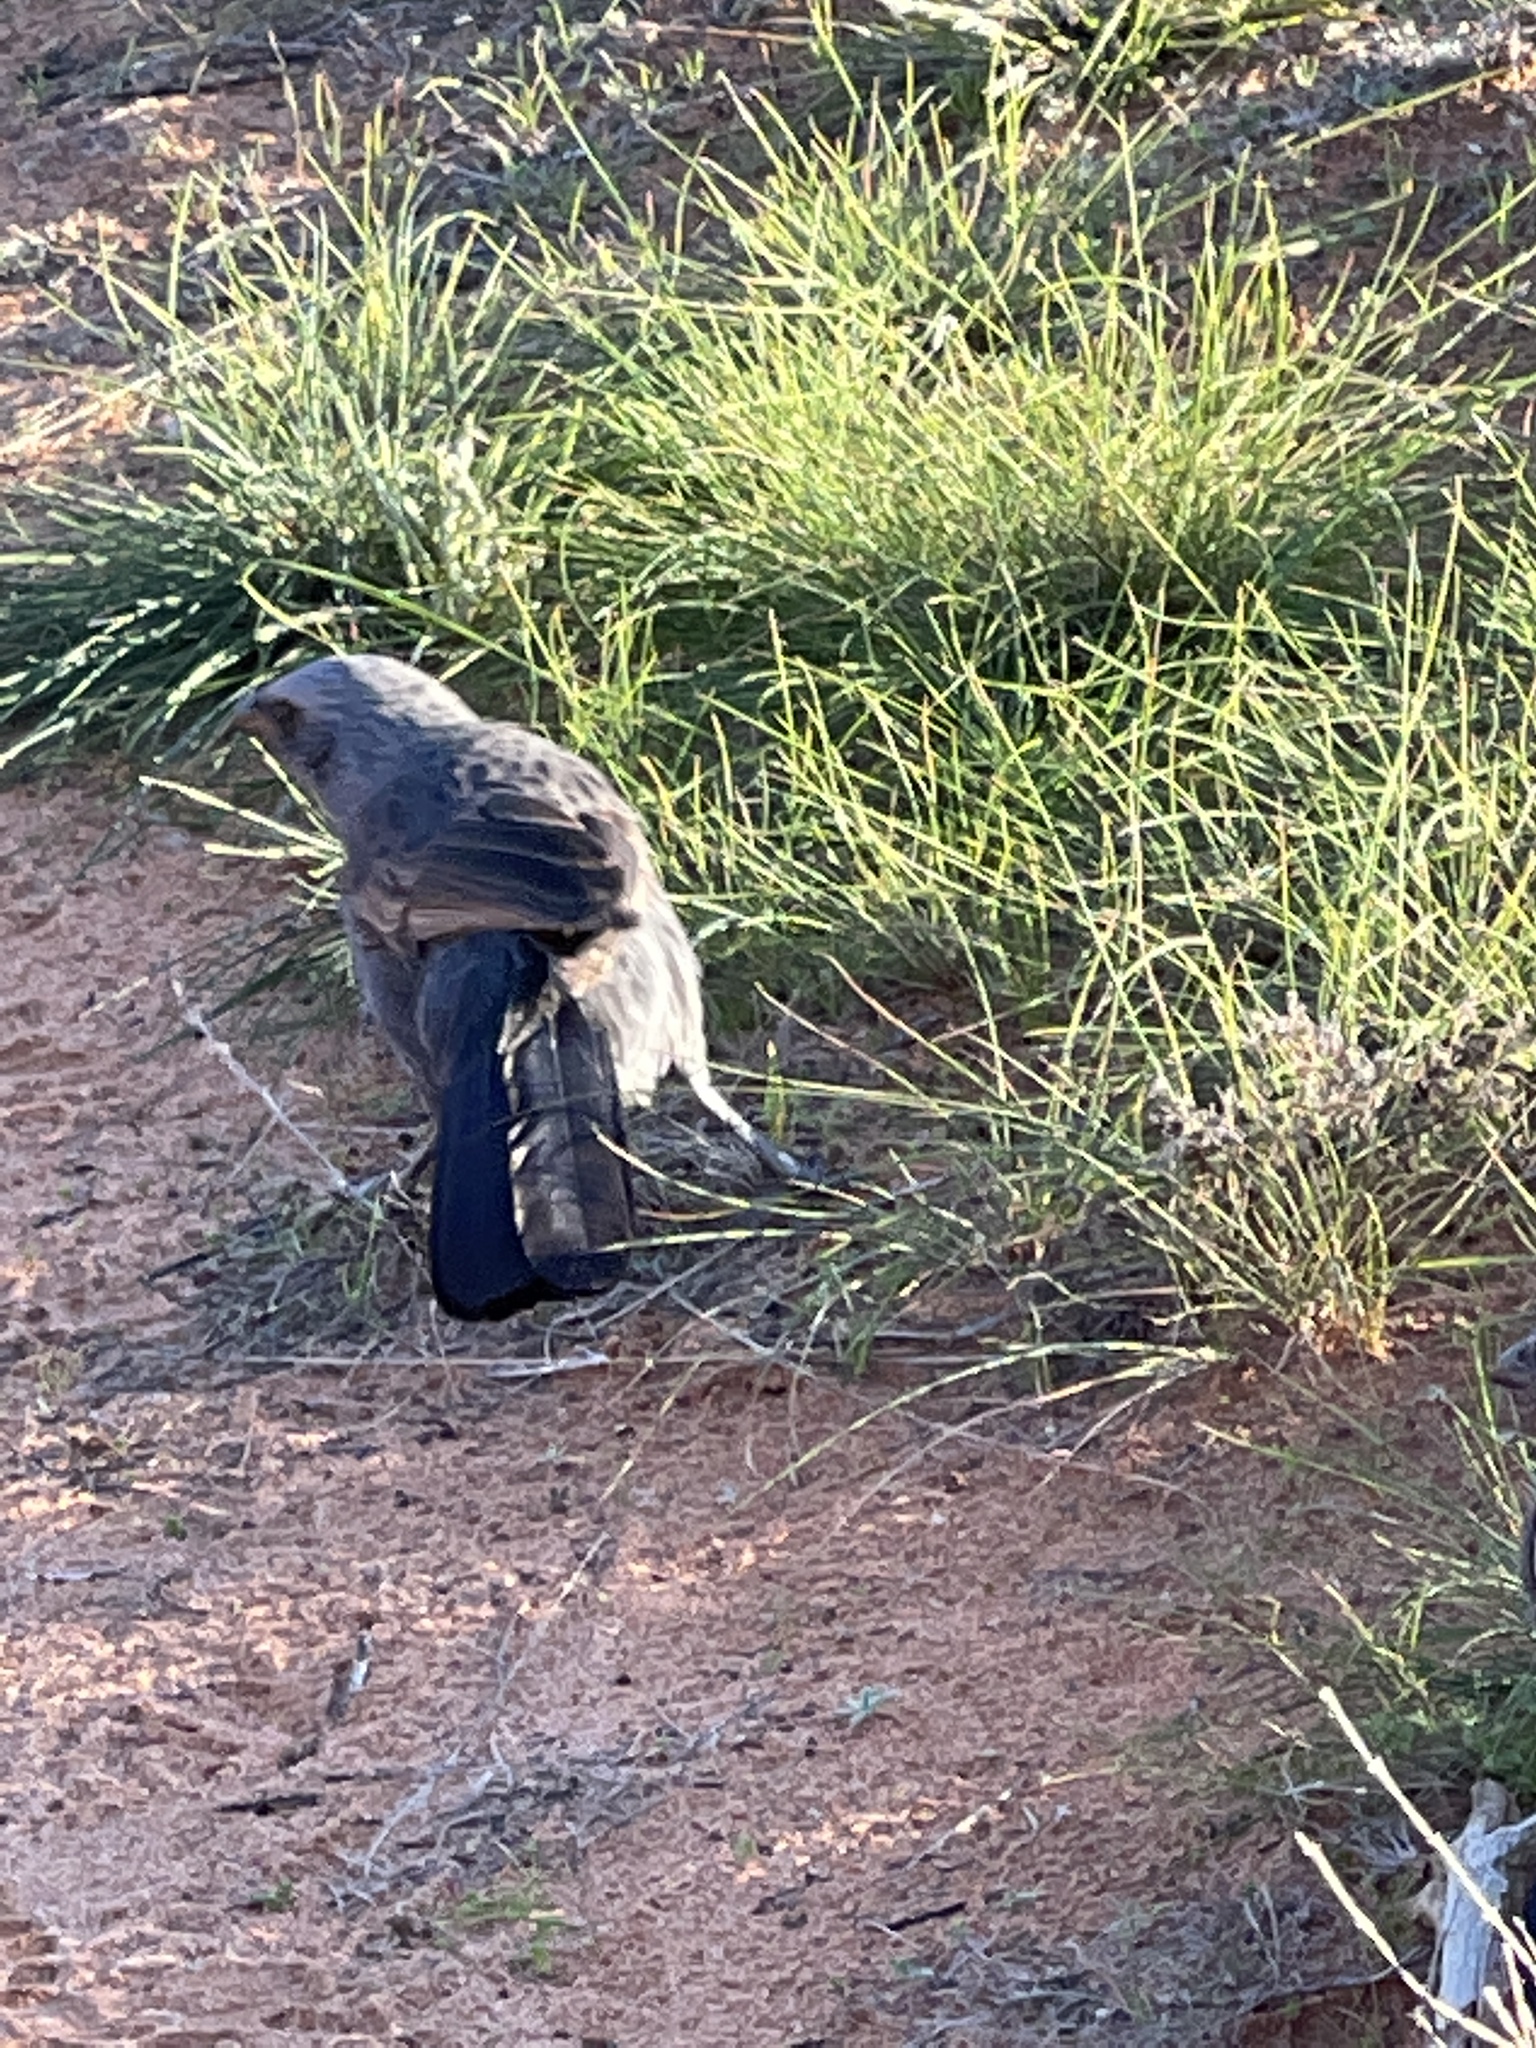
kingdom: Animalia
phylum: Chordata
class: Aves
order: Passeriformes
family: Corcoracidae
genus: Struthidea
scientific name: Struthidea cinerea
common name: Apostlebird
